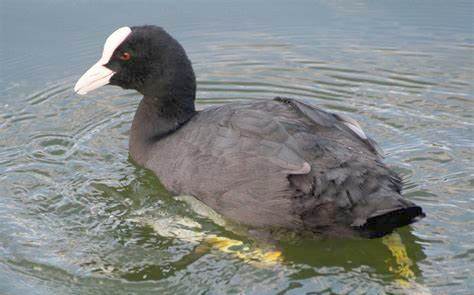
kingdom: Animalia
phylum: Chordata
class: Aves
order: Gruiformes
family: Rallidae
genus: Fulica
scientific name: Fulica atra
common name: Eurasian coot
